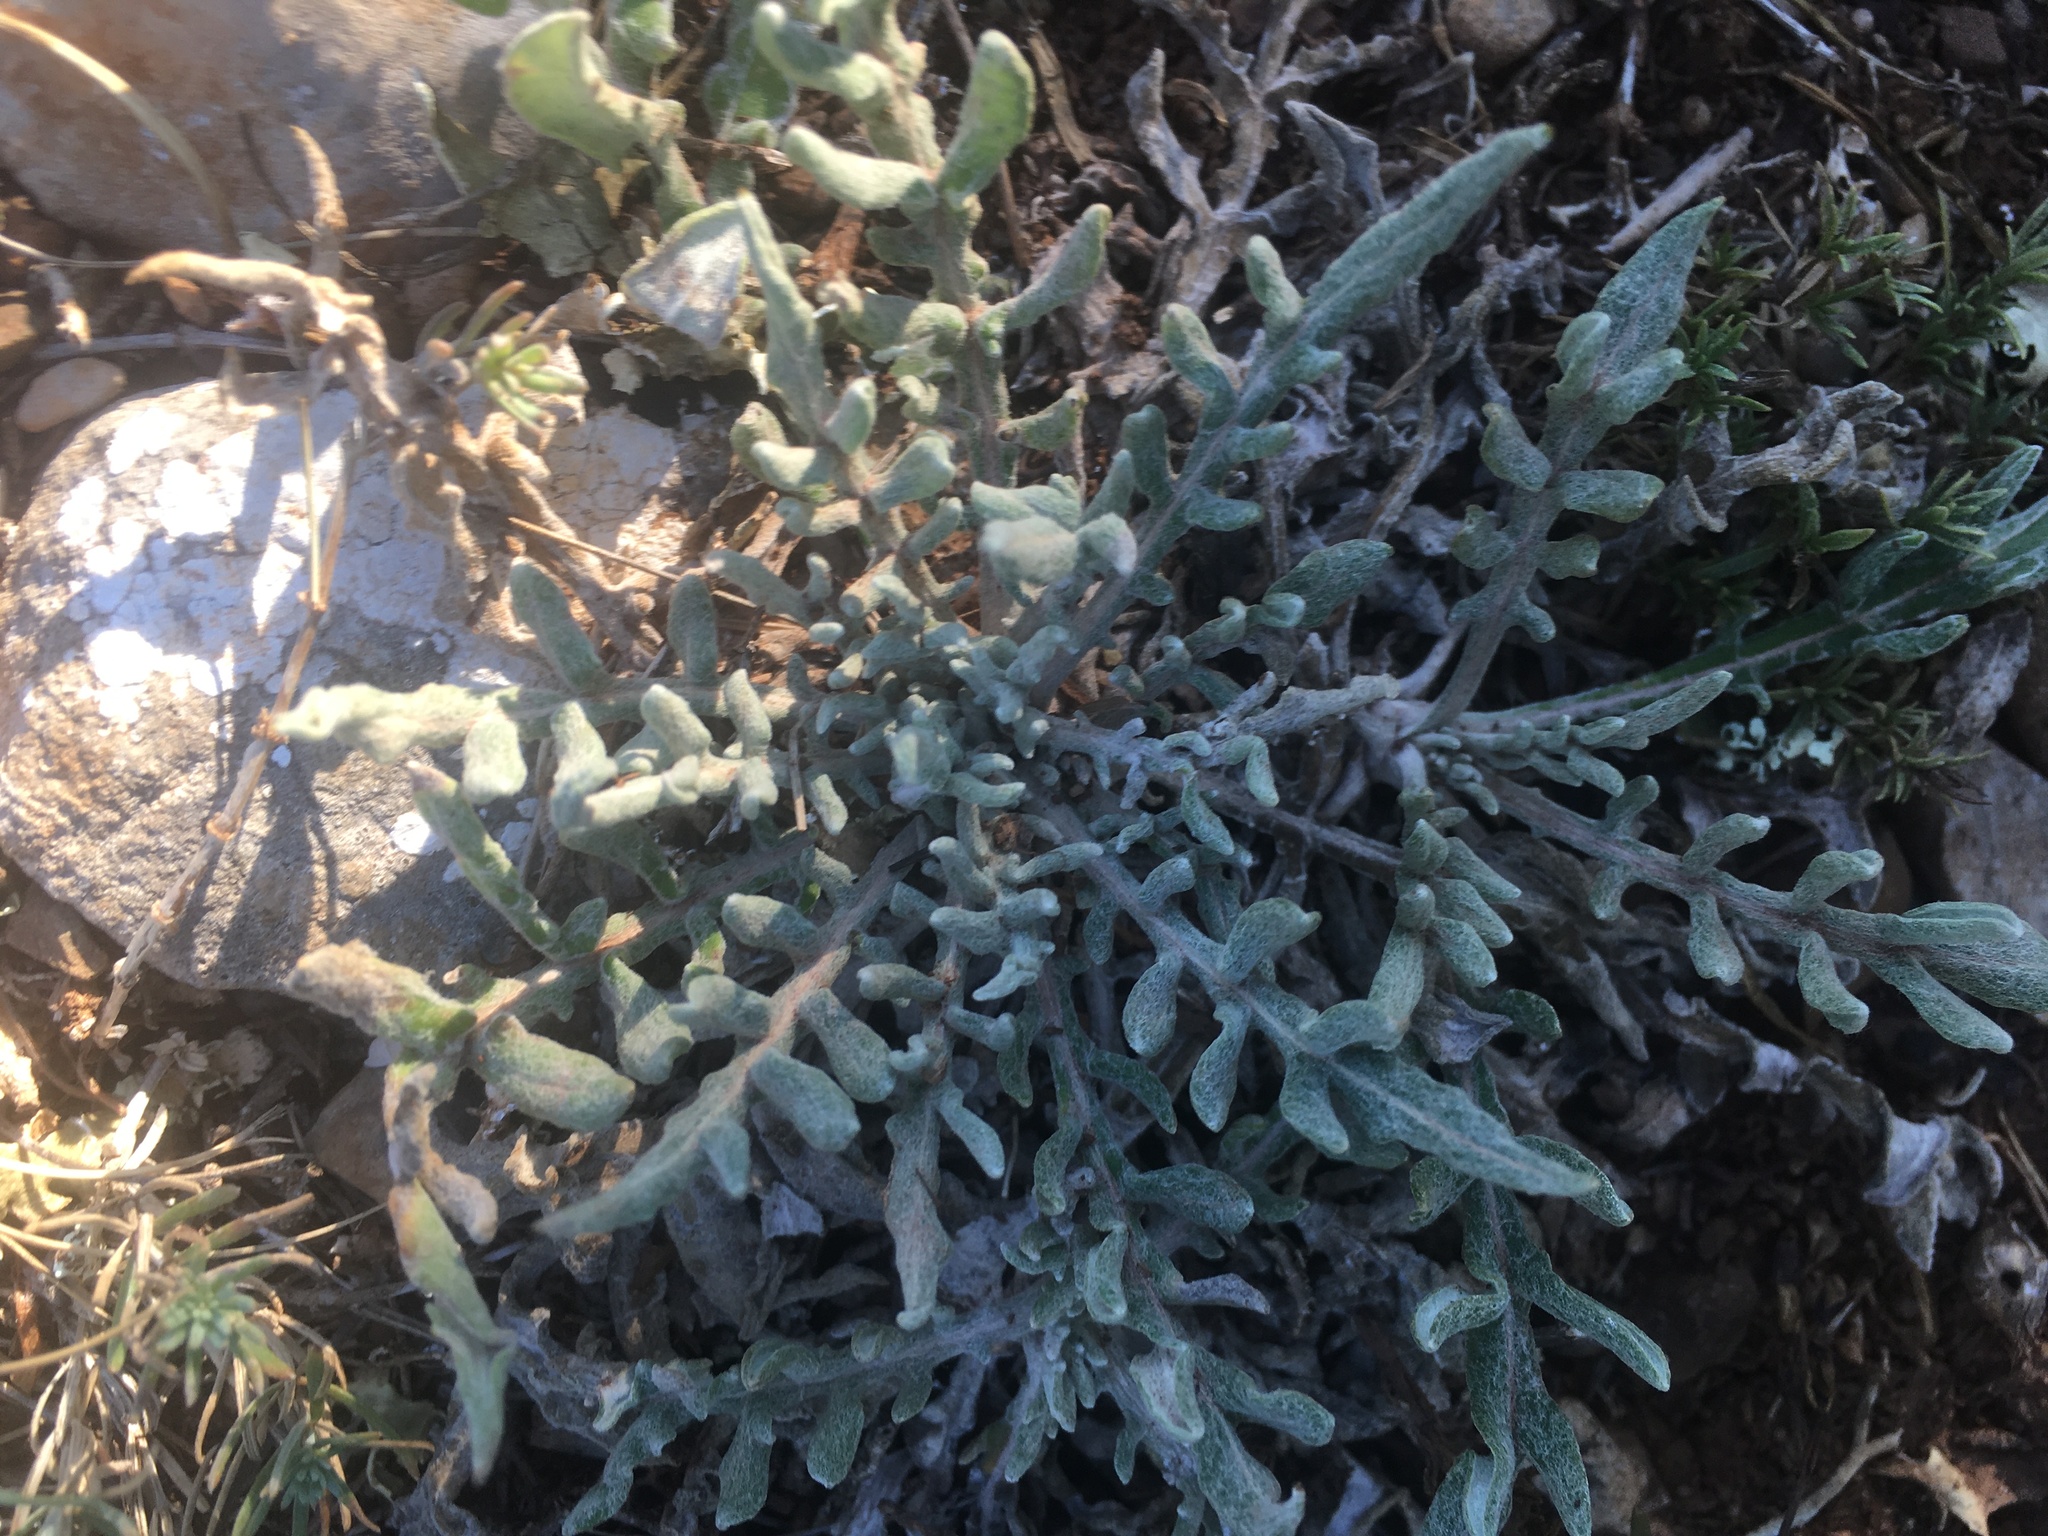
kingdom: Plantae
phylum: Tracheophyta
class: Magnoliopsida
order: Asterales
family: Asteraceae
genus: Jurinea
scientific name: Jurinea roegneri
